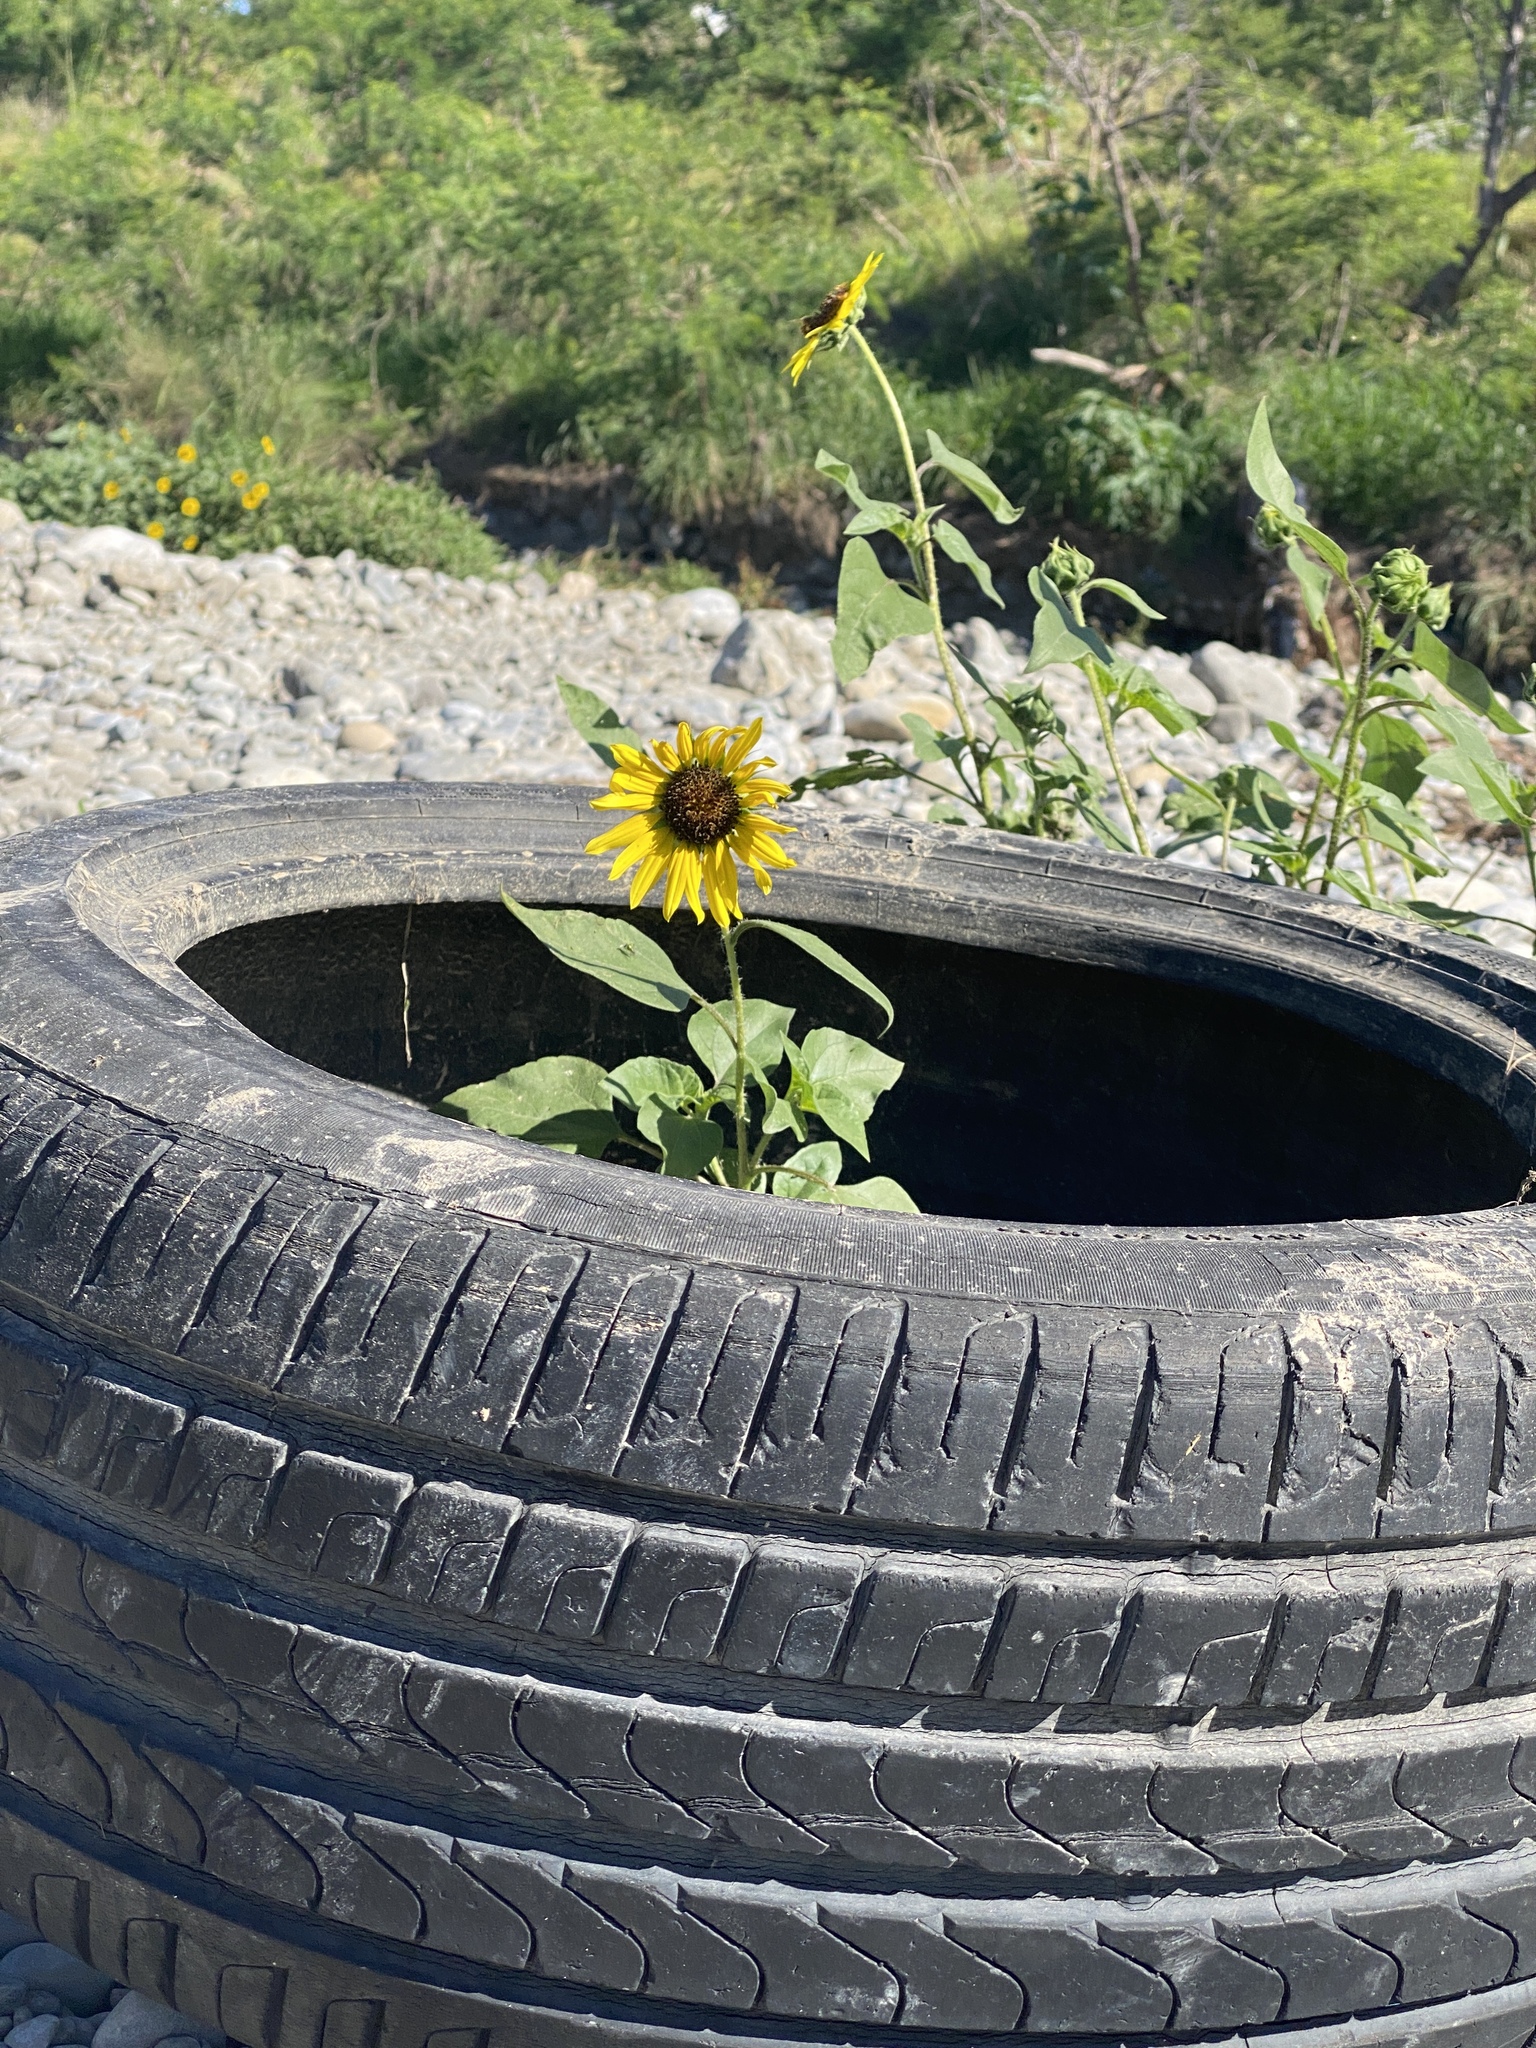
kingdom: Plantae
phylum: Tracheophyta
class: Magnoliopsida
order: Asterales
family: Asteraceae
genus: Helianthus
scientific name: Helianthus annuus
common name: Sunflower
